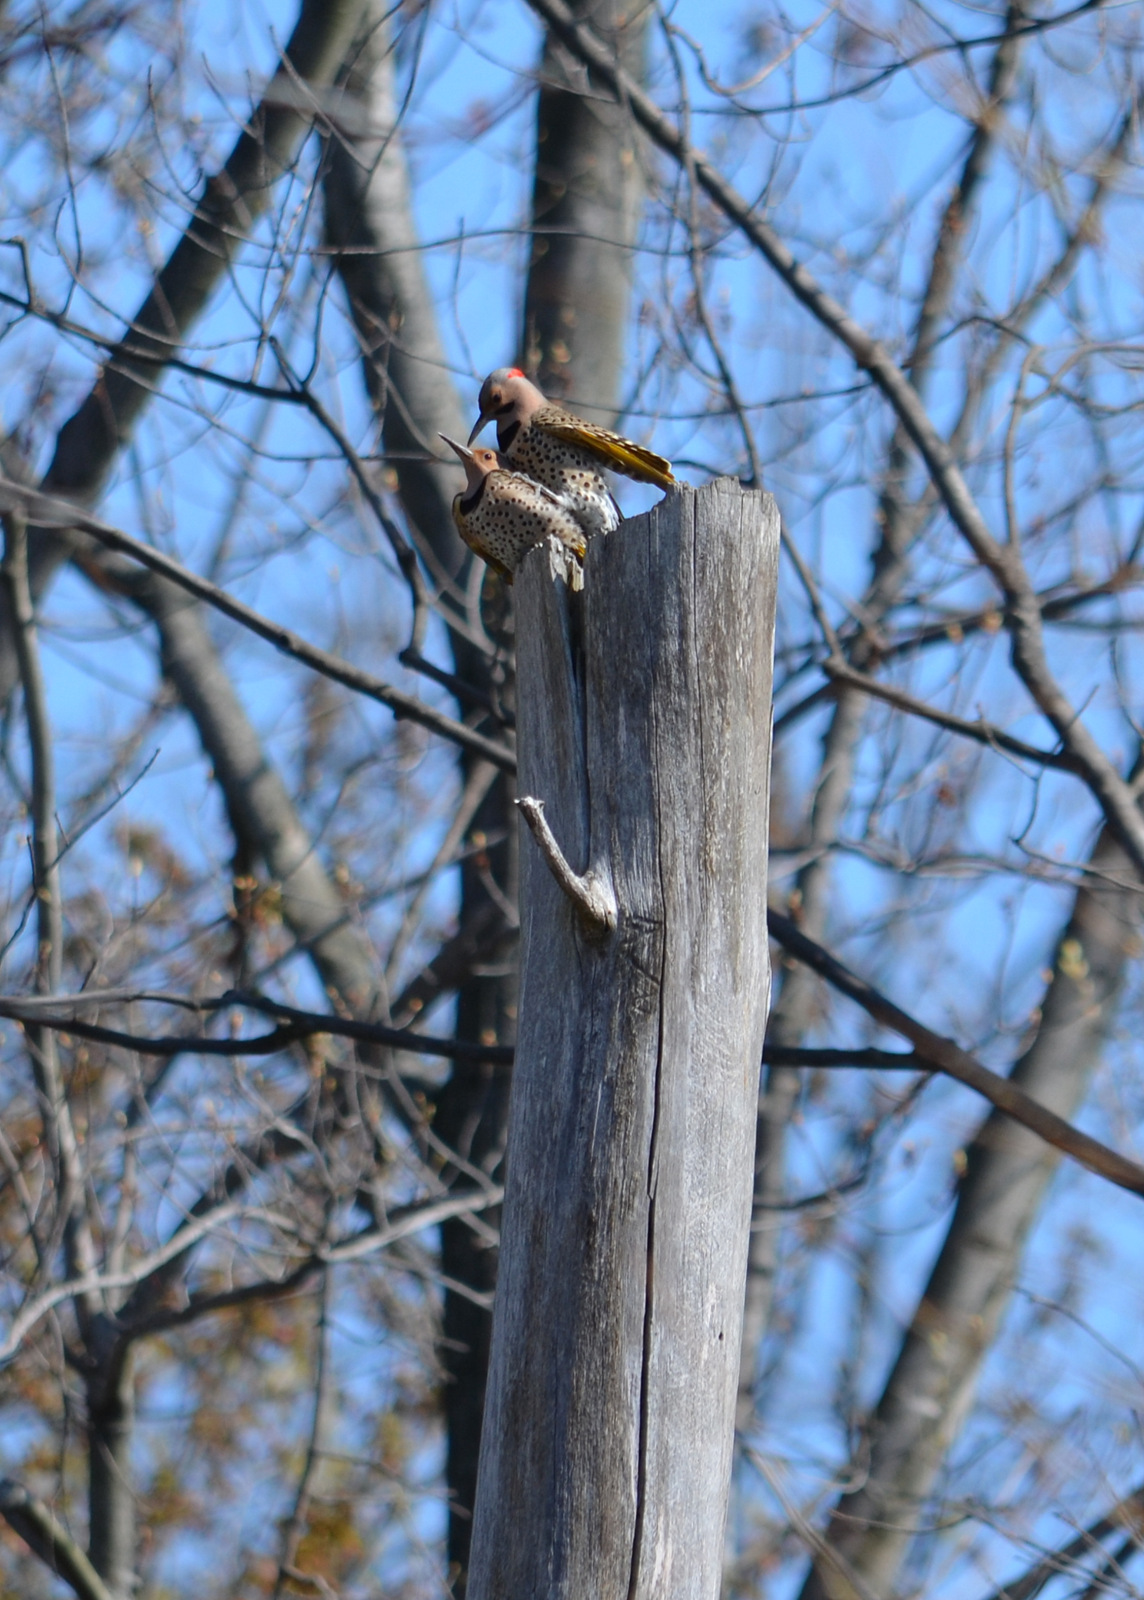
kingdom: Animalia
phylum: Chordata
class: Aves
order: Piciformes
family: Picidae
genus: Colaptes
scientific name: Colaptes auratus
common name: Northern flicker
